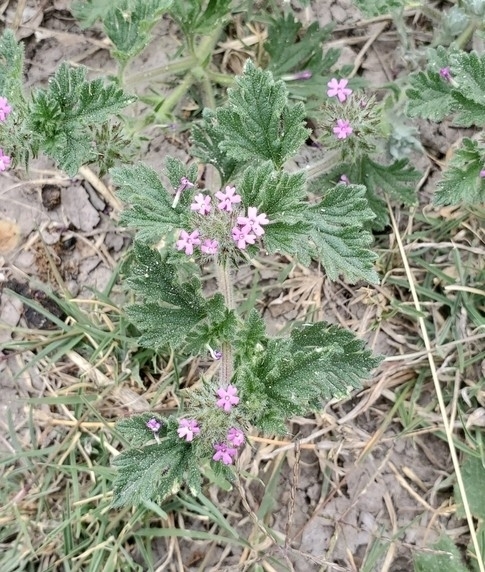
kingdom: Plantae
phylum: Tracheophyta
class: Magnoliopsida
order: Lamiales
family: Verbenaceae
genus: Verbena
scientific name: Verbena pumila
